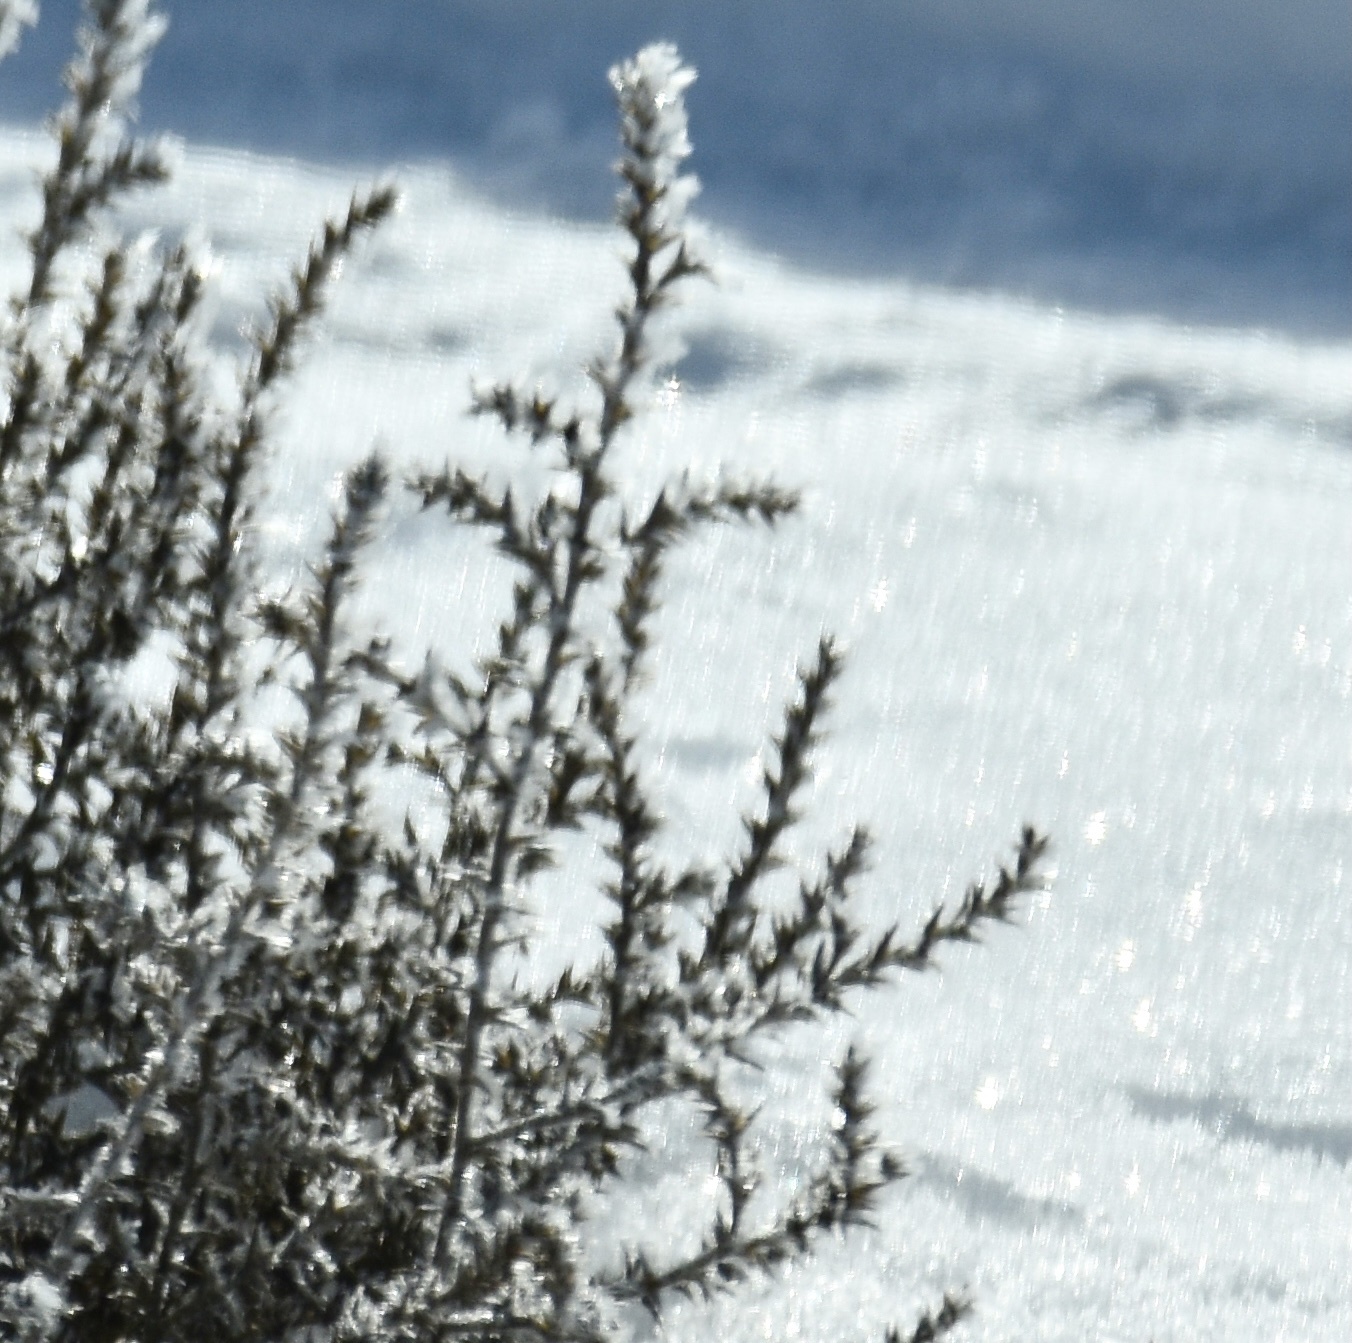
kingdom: Plantae
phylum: Tracheophyta
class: Magnoliopsida
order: Caryophyllales
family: Amaranthaceae
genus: Salsola
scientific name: Salsola tragus
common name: Prickly russian thistle
